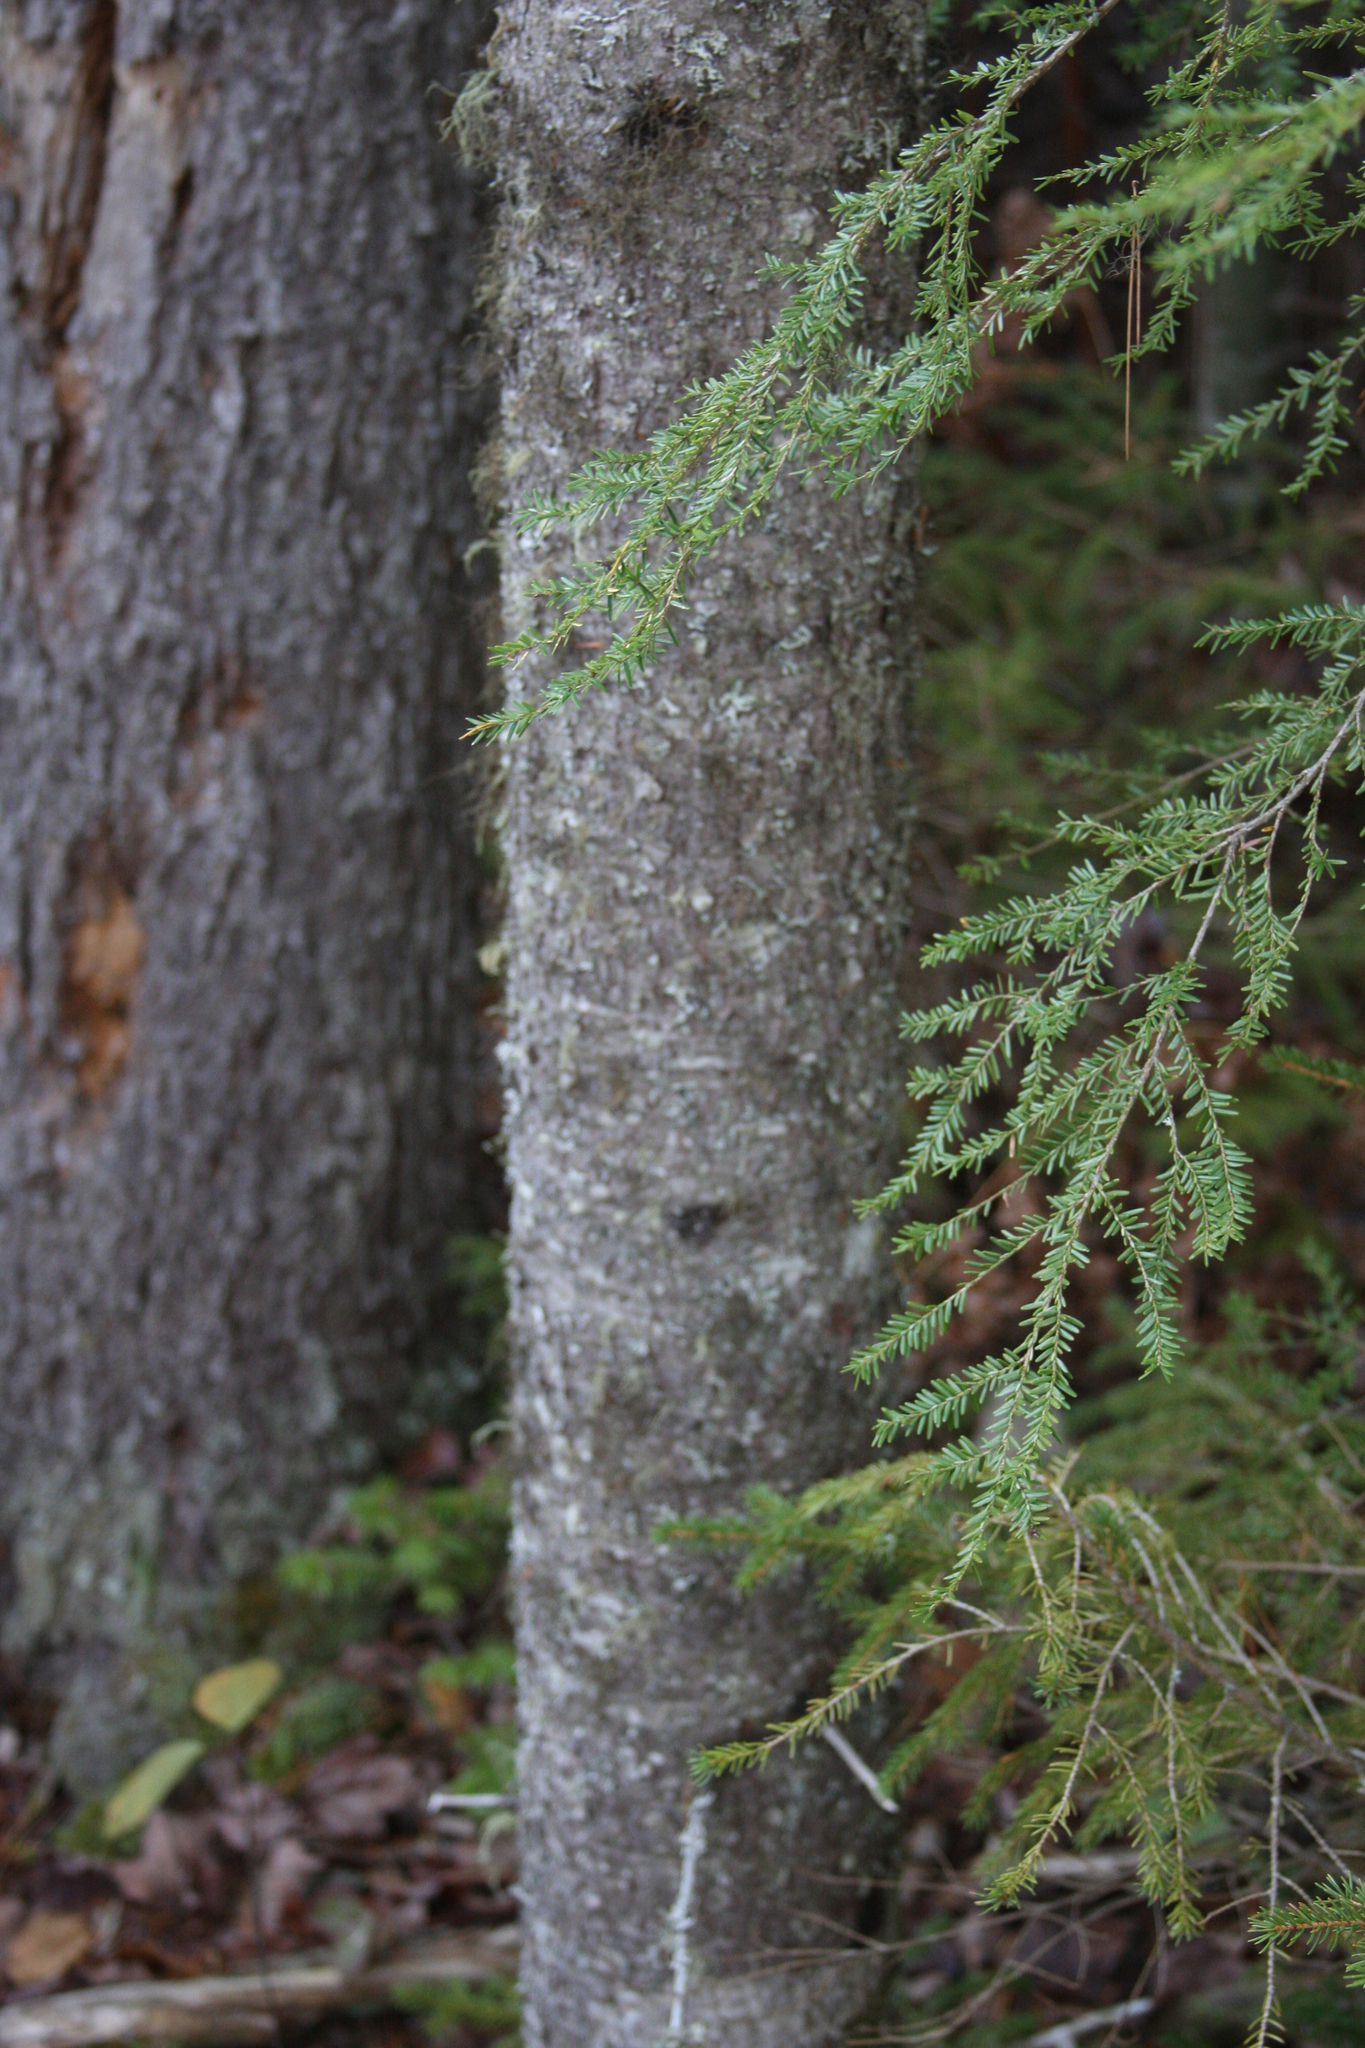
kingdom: Plantae
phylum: Tracheophyta
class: Pinopsida
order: Pinales
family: Pinaceae
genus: Tsuga
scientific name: Tsuga canadensis
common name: Eastern hemlock
